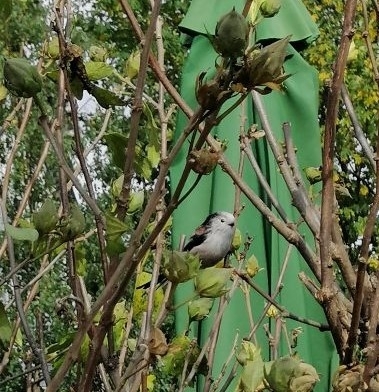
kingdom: Animalia
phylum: Chordata
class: Aves
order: Passeriformes
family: Aegithalidae
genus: Aegithalos
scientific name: Aegithalos caudatus
